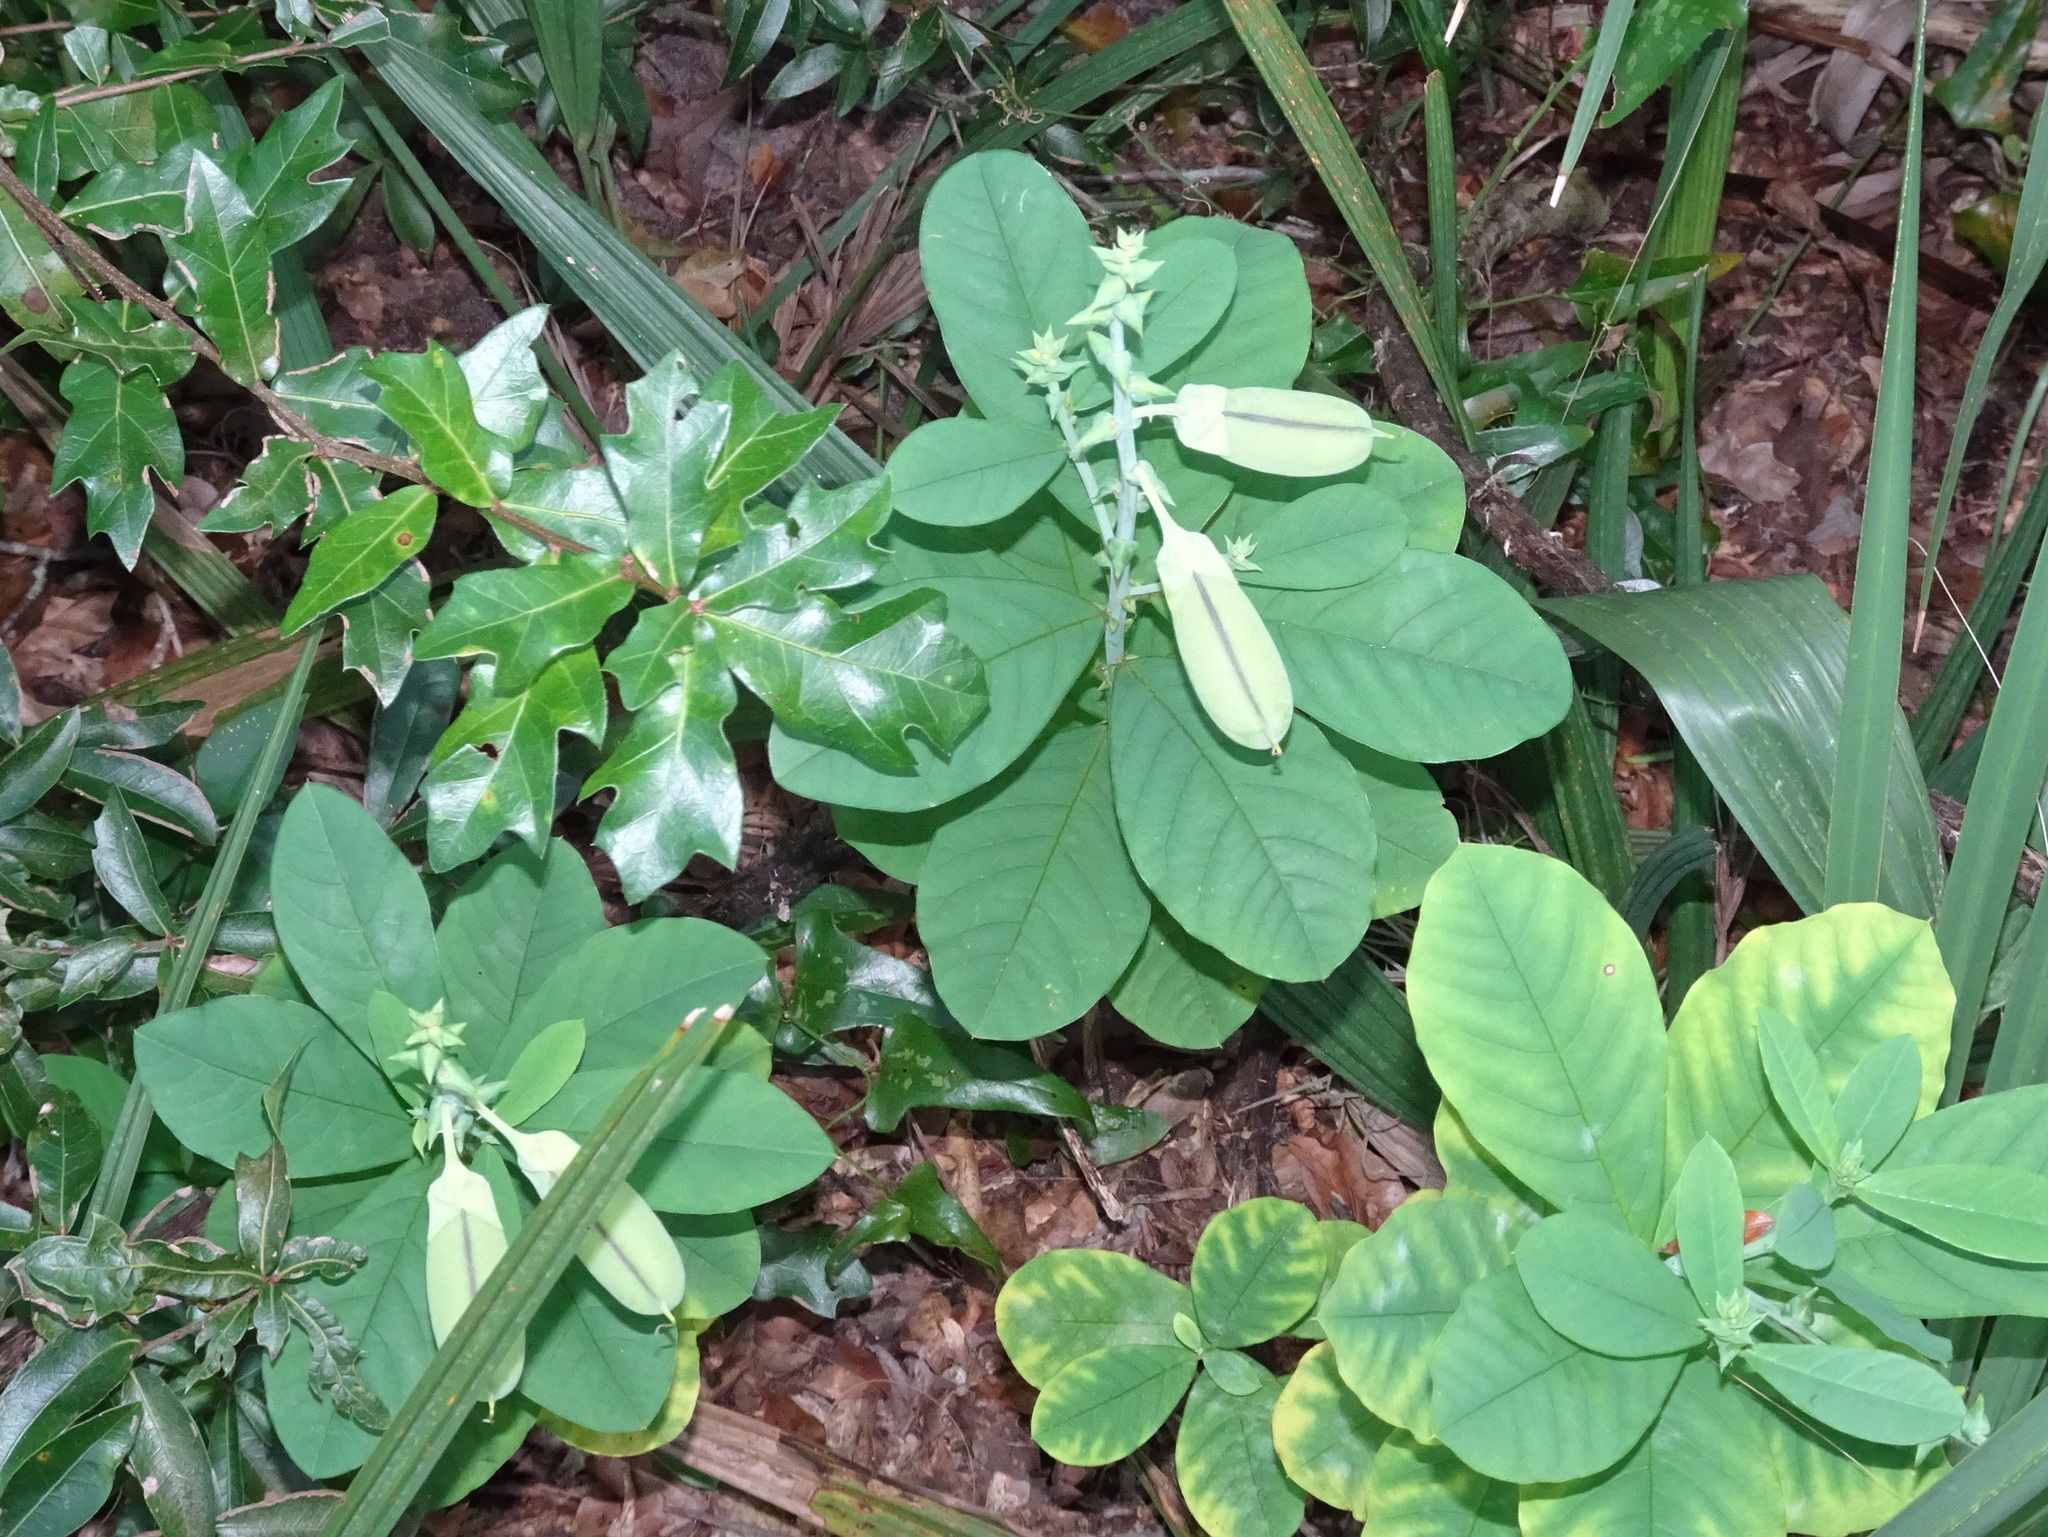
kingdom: Plantae
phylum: Tracheophyta
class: Magnoliopsida
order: Fabales
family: Fabaceae
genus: Crotalaria
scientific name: Crotalaria spectabilis
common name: Showy rattlebox
